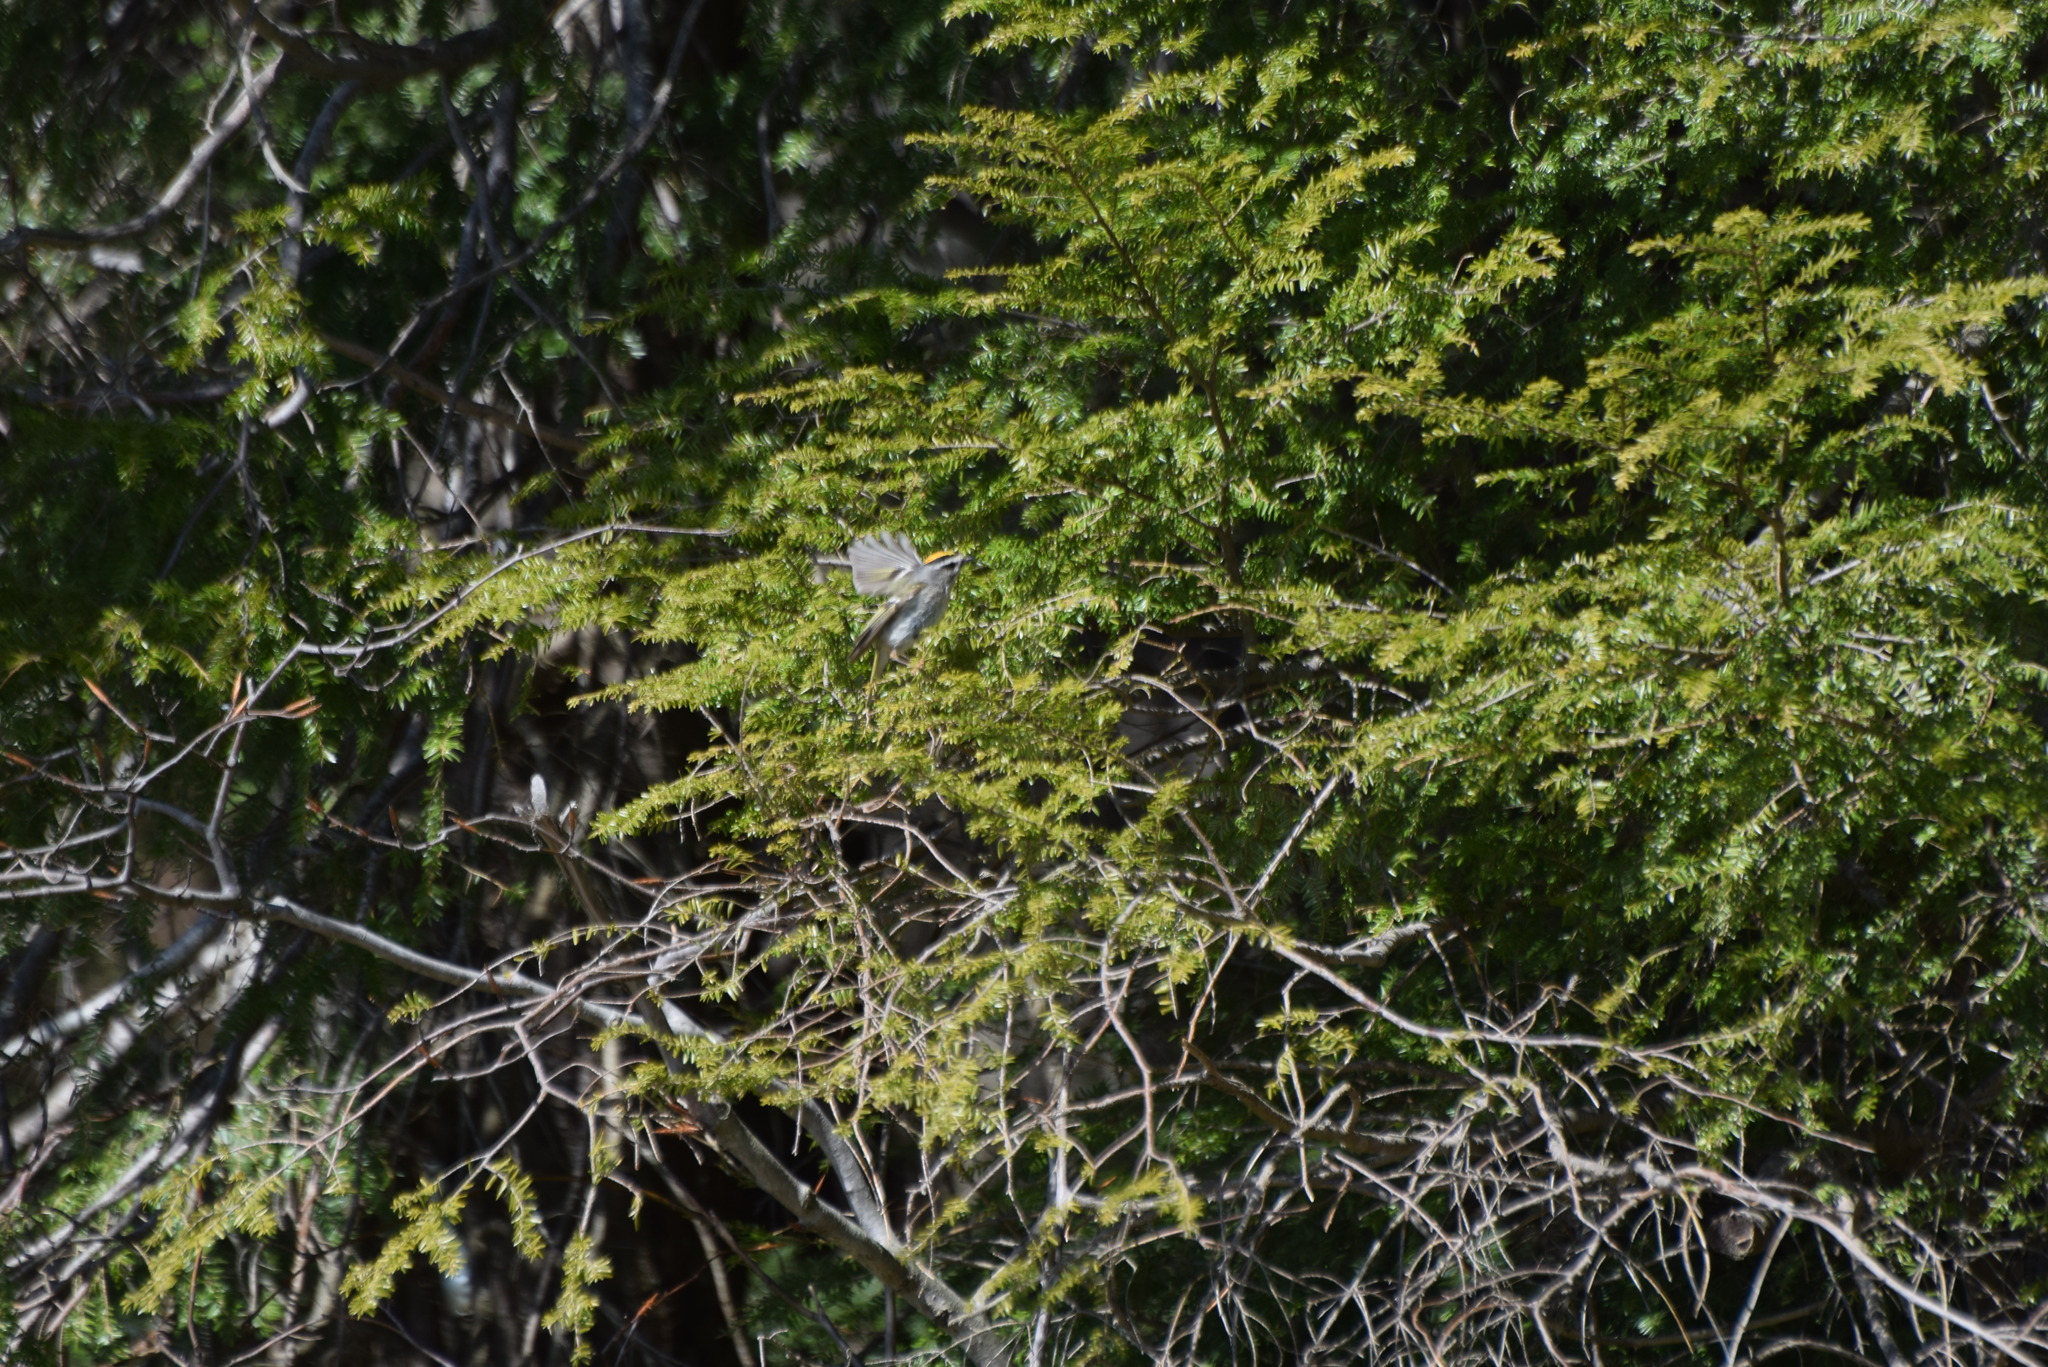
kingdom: Animalia
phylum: Chordata
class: Aves
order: Passeriformes
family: Regulidae
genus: Regulus
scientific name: Regulus satrapa
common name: Golden-crowned kinglet
